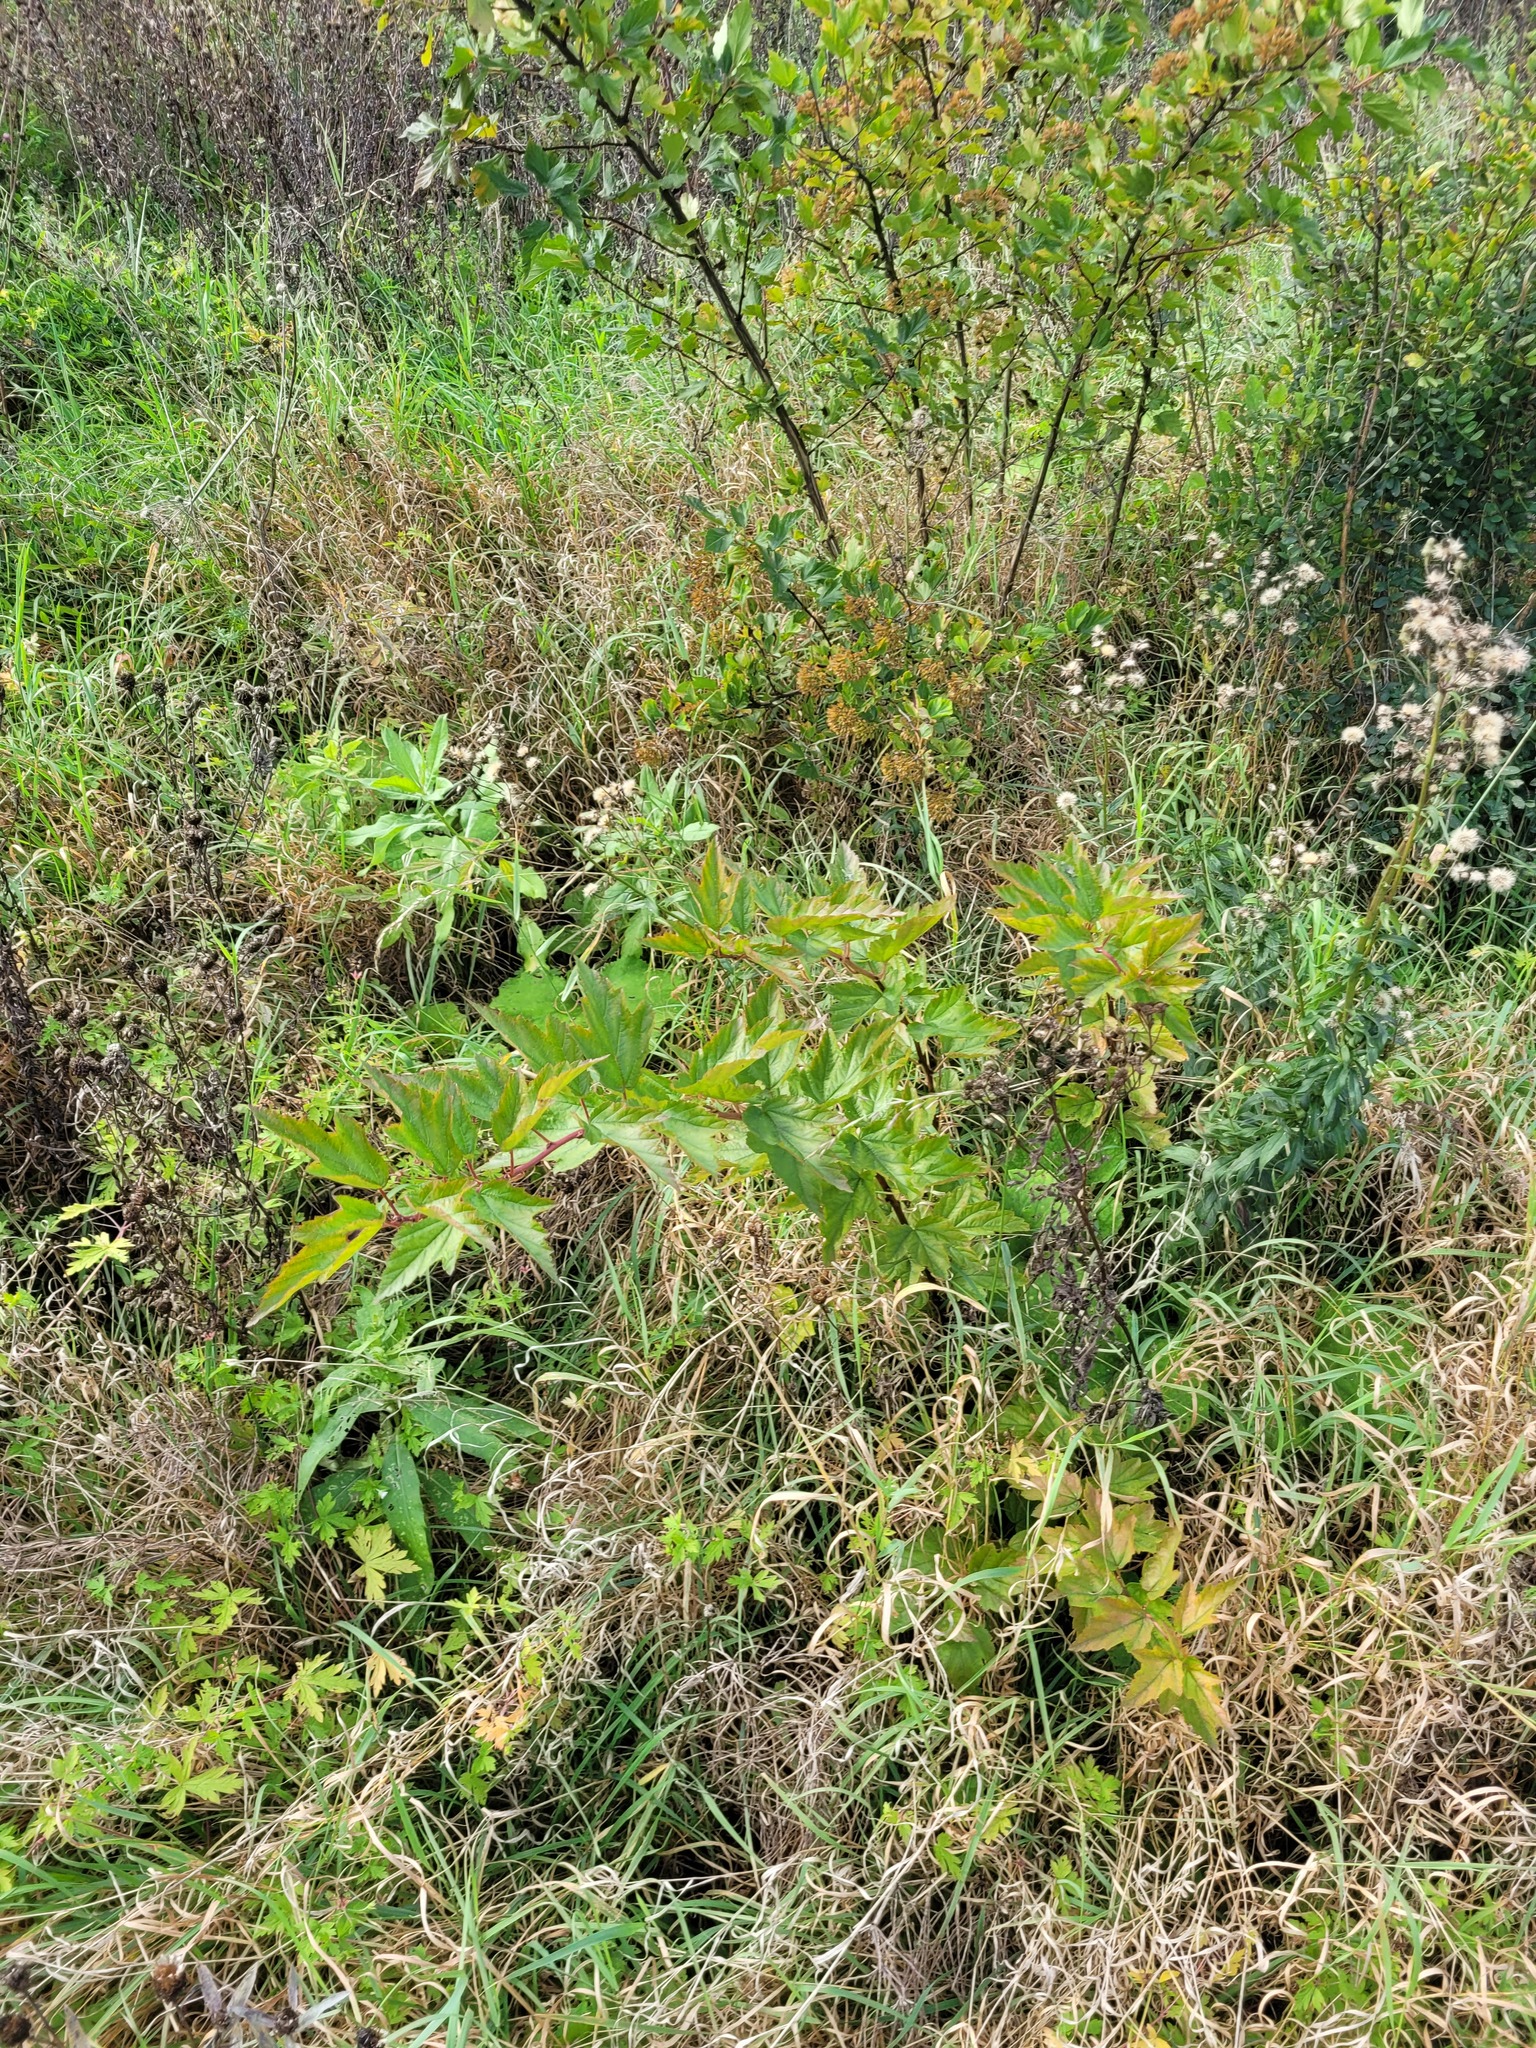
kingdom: Plantae
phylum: Tracheophyta
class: Magnoliopsida
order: Rosales
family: Rosaceae
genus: Physocarpus
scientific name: Physocarpus opulifolius
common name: Ninebark
